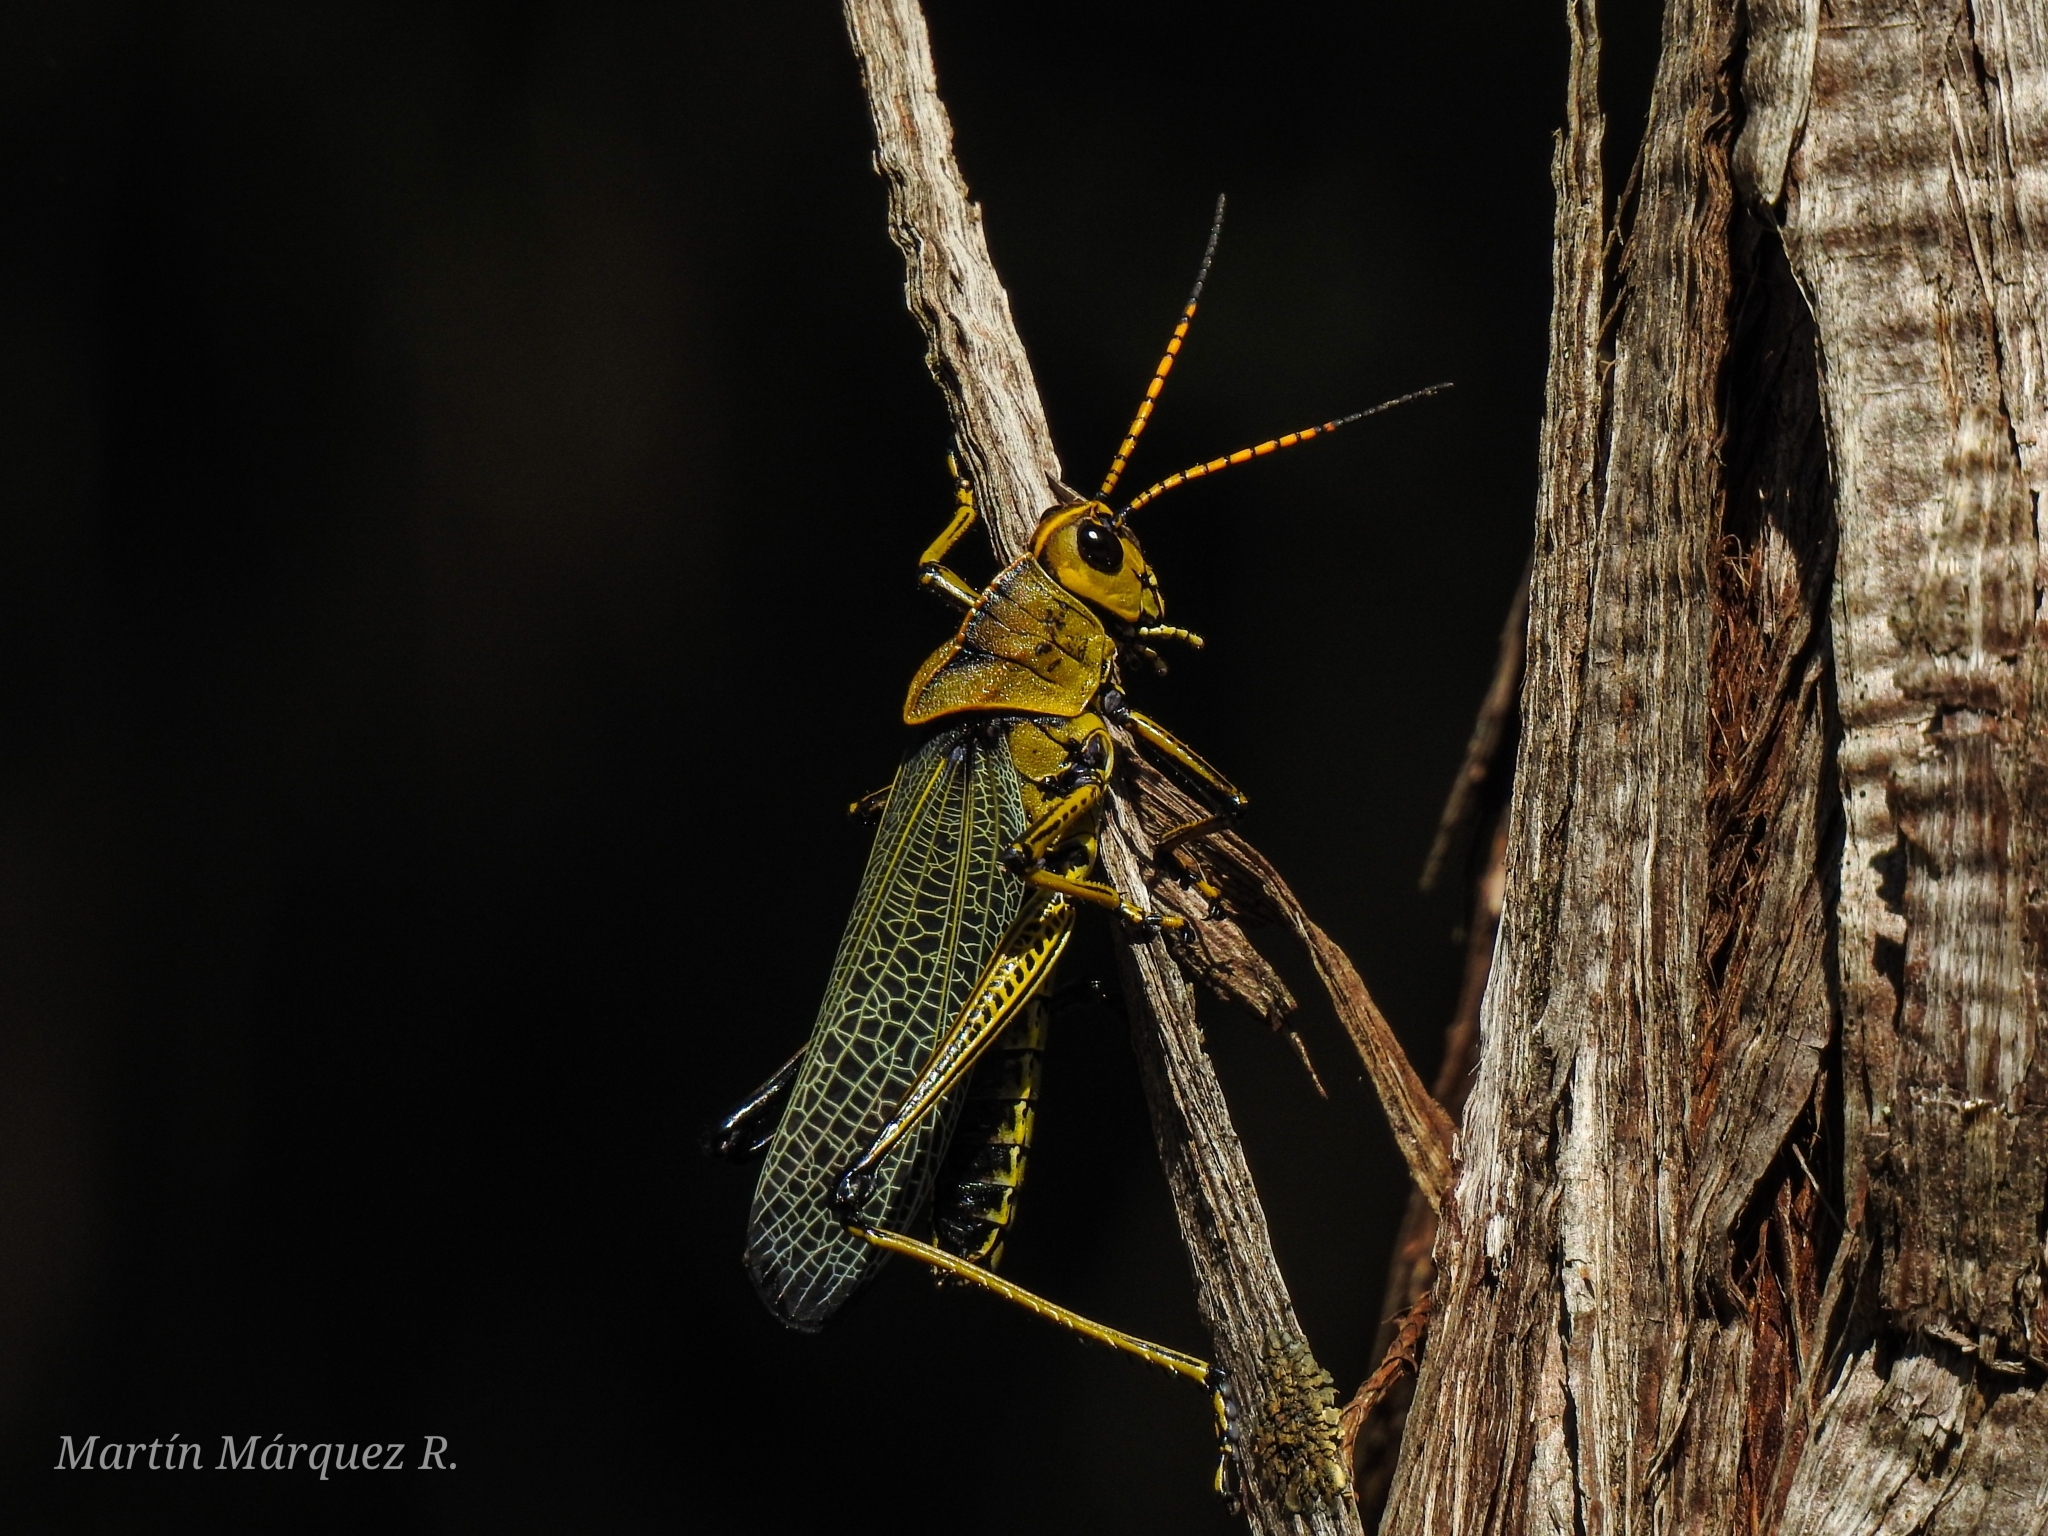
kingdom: Animalia
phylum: Arthropoda
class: Insecta
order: Orthoptera
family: Romaleidae
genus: Romalea
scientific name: Romalea
